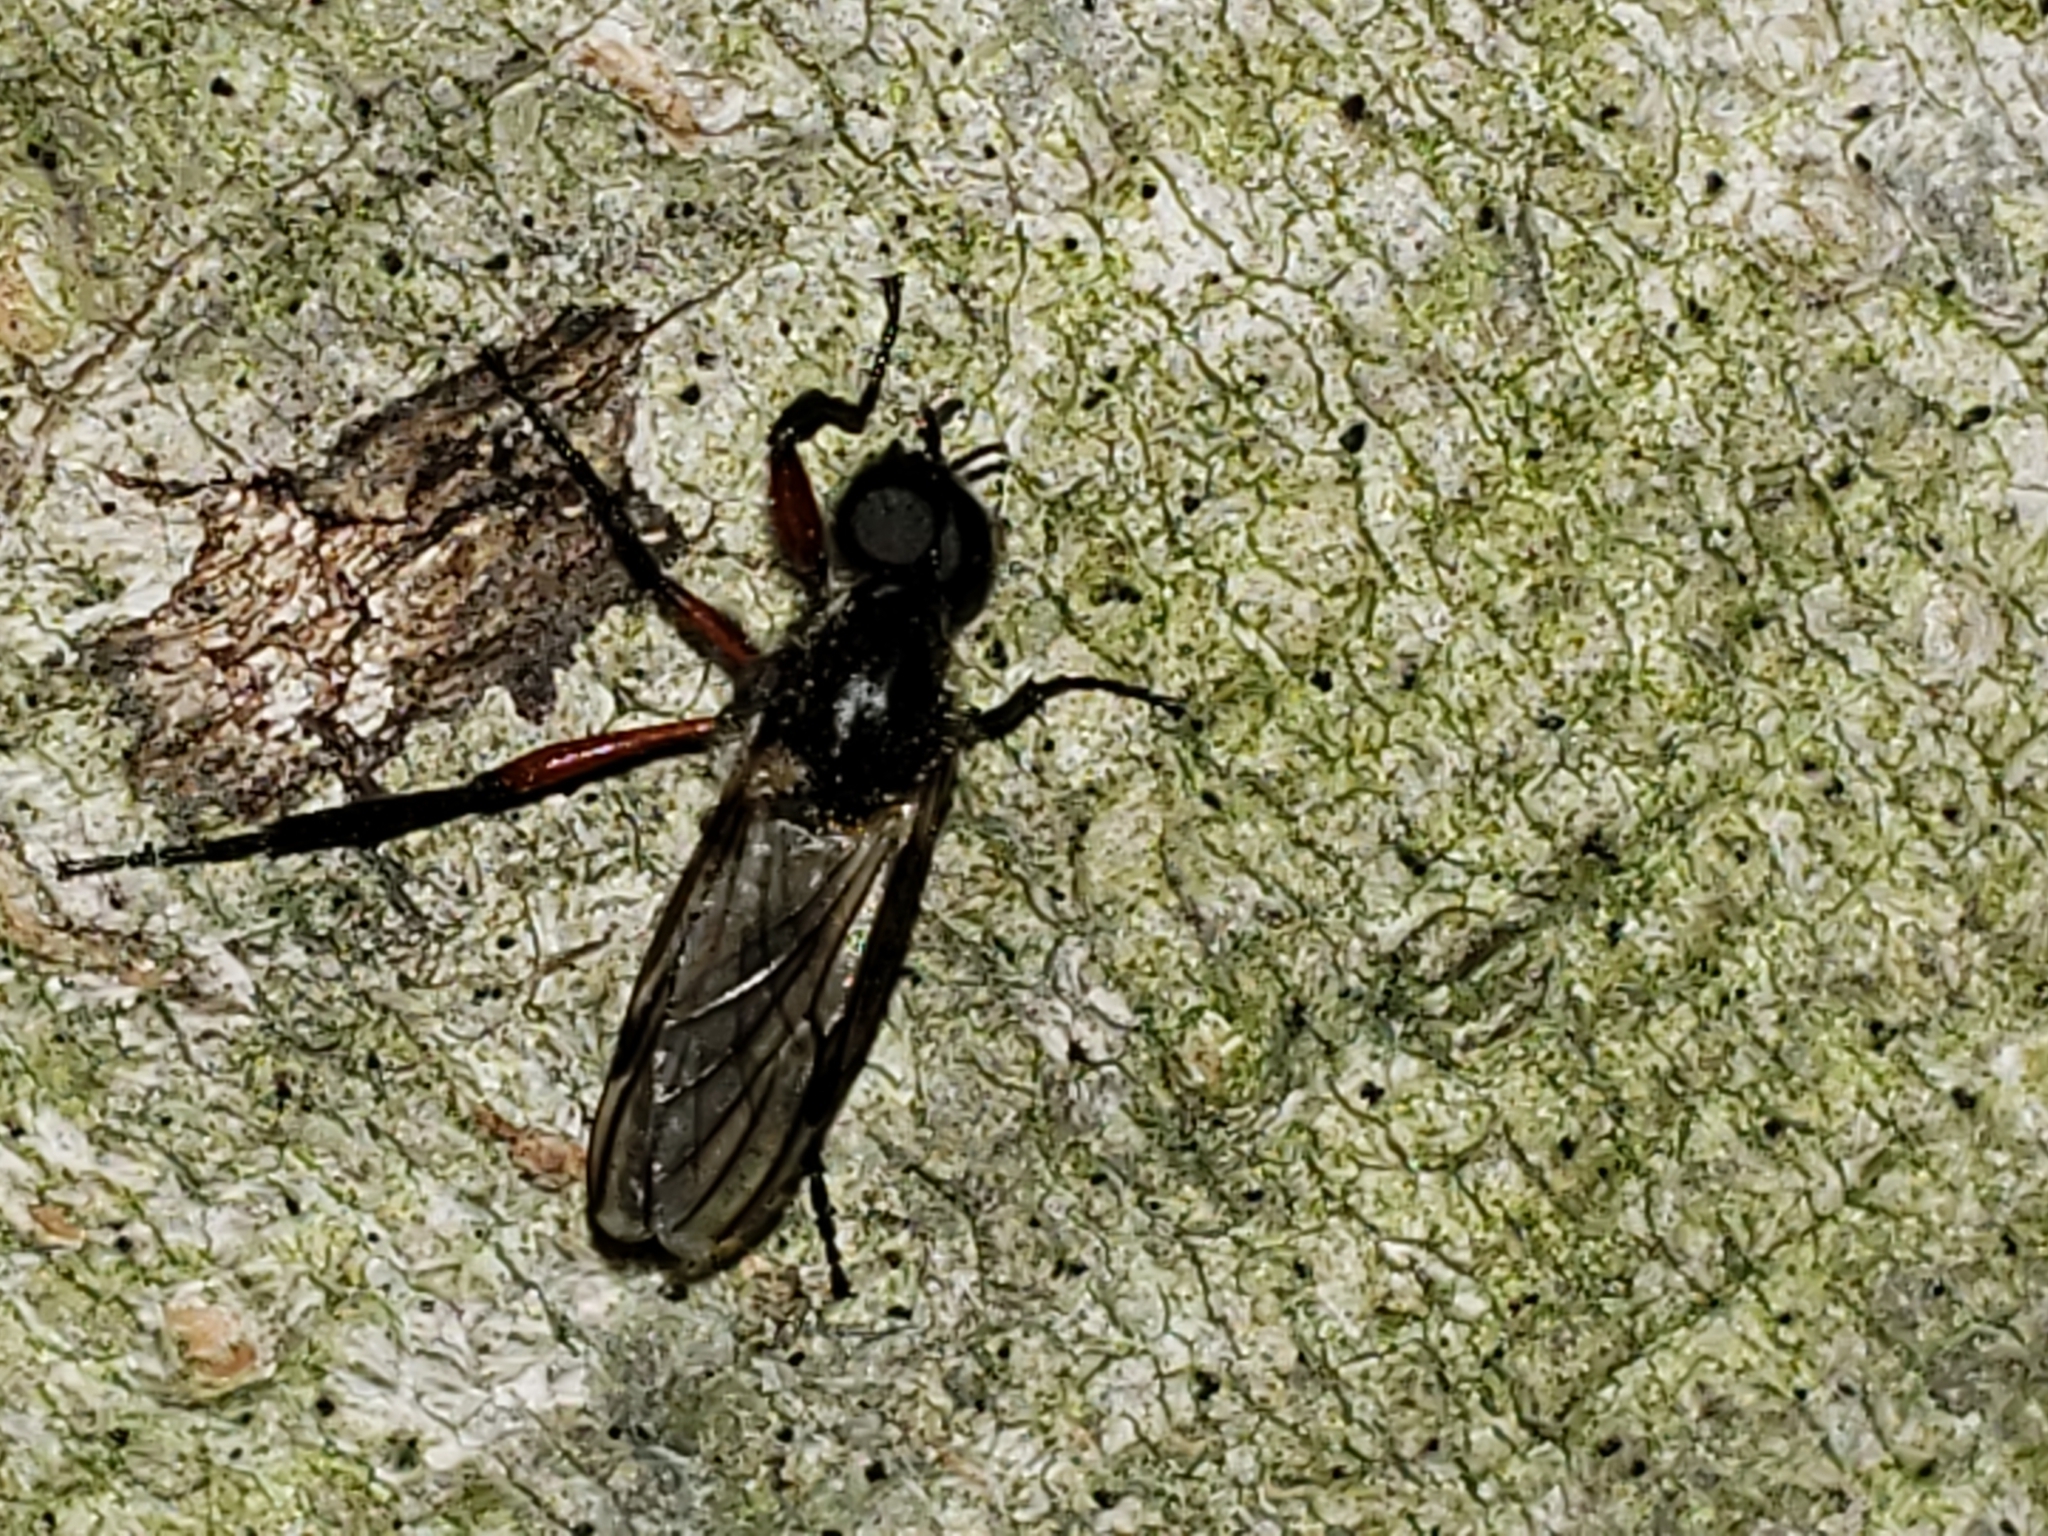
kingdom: Animalia
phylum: Arthropoda
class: Insecta
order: Diptera
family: Bibionidae
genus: Bibio
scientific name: Bibio femoratus
